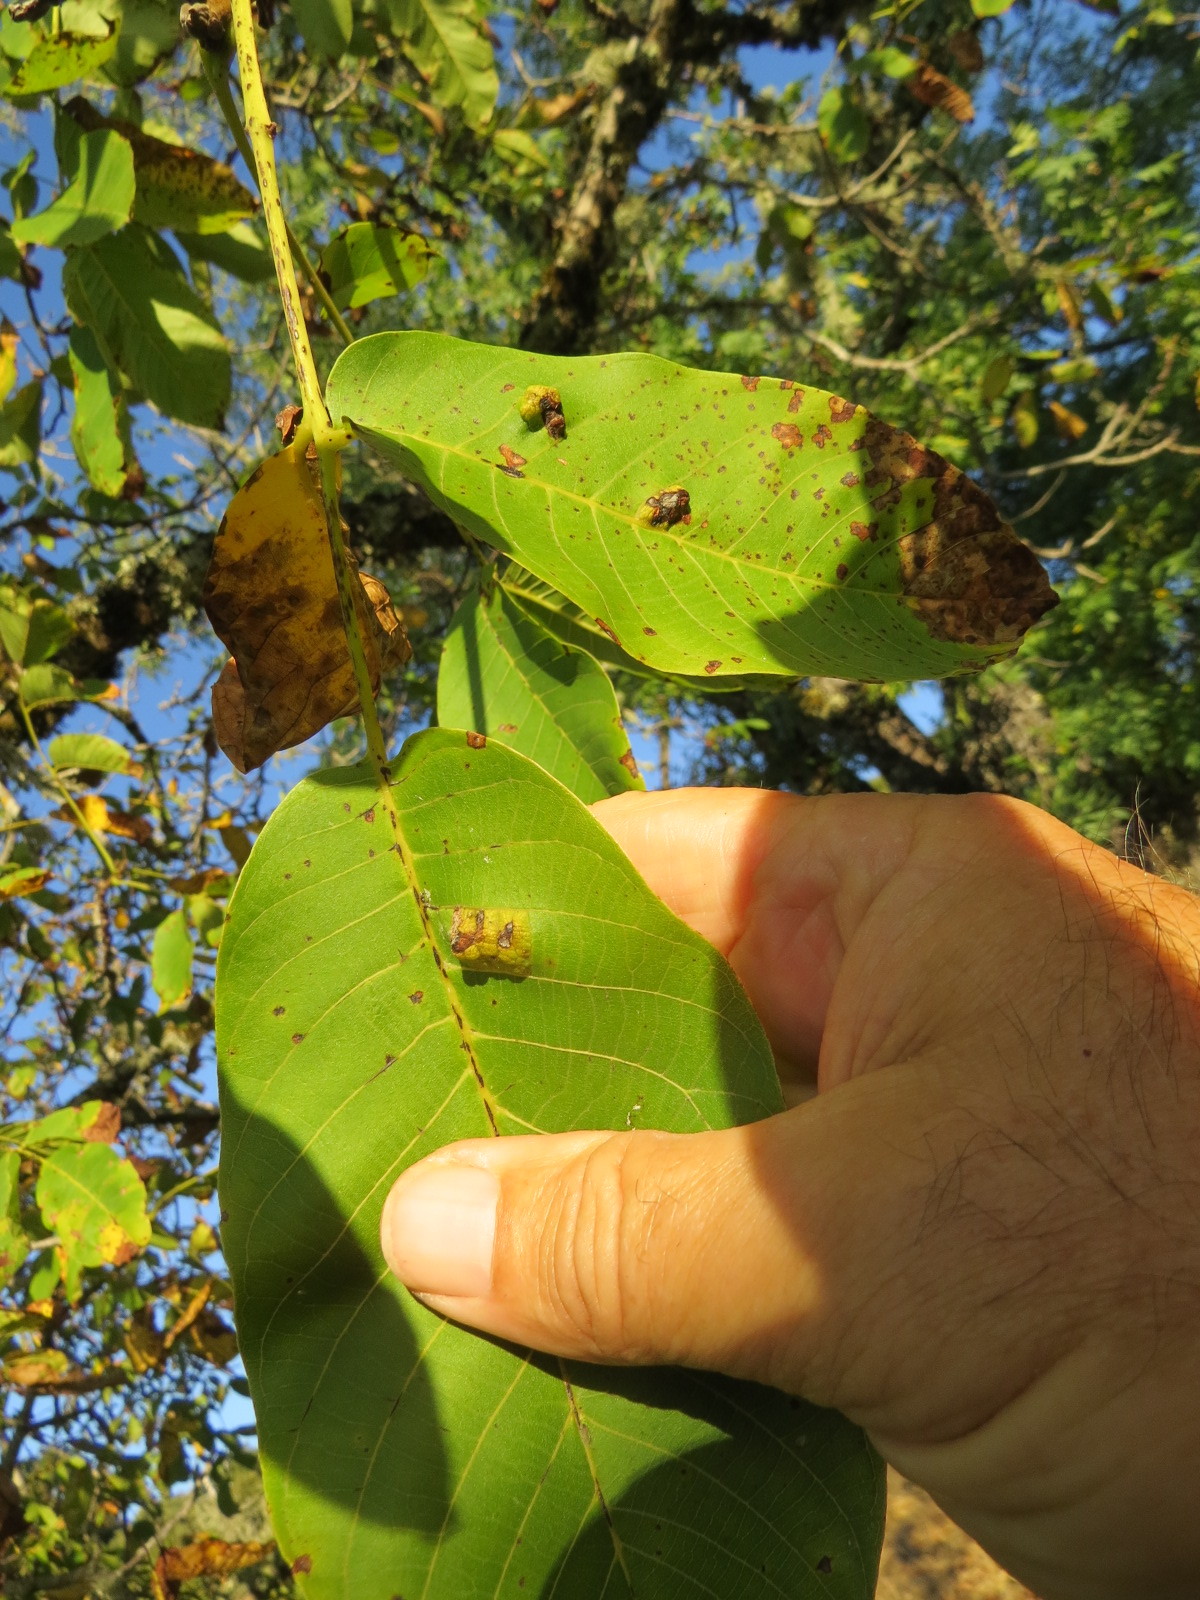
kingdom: Animalia
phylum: Arthropoda
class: Arachnida
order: Trombidiformes
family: Eriophyidae
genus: Aceria
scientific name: Aceria erinea
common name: Persian walnut erineum mite
